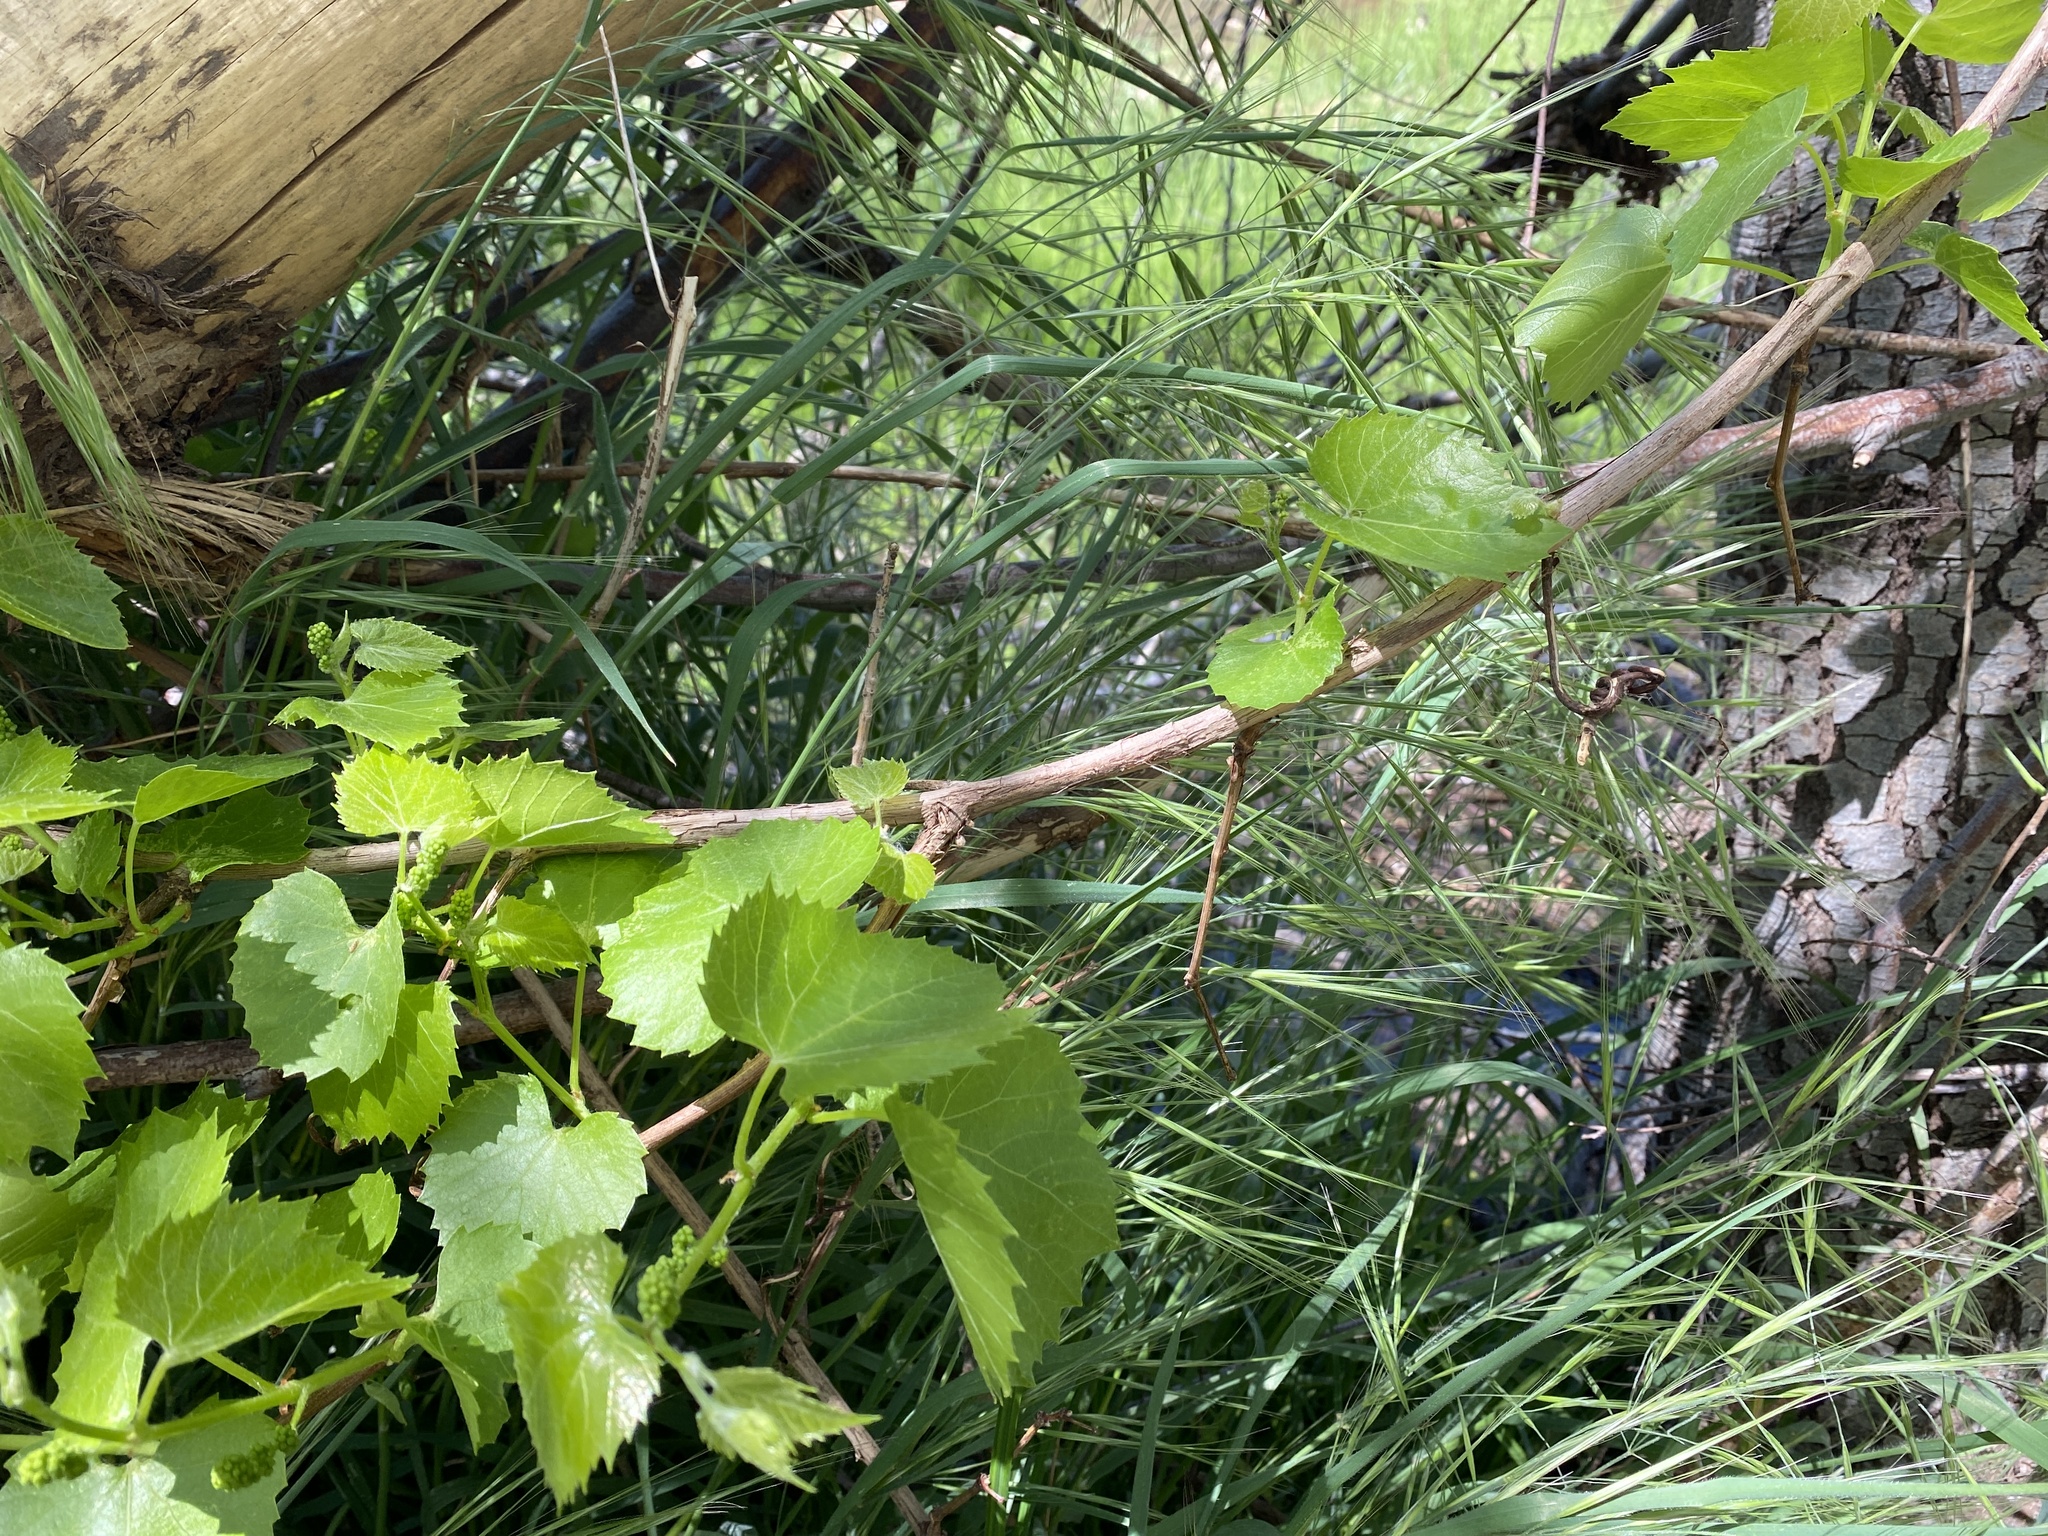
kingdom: Plantae
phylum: Tracheophyta
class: Magnoliopsida
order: Vitales
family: Vitaceae
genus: Vitis
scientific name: Vitis arizonica
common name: Canyon grape
